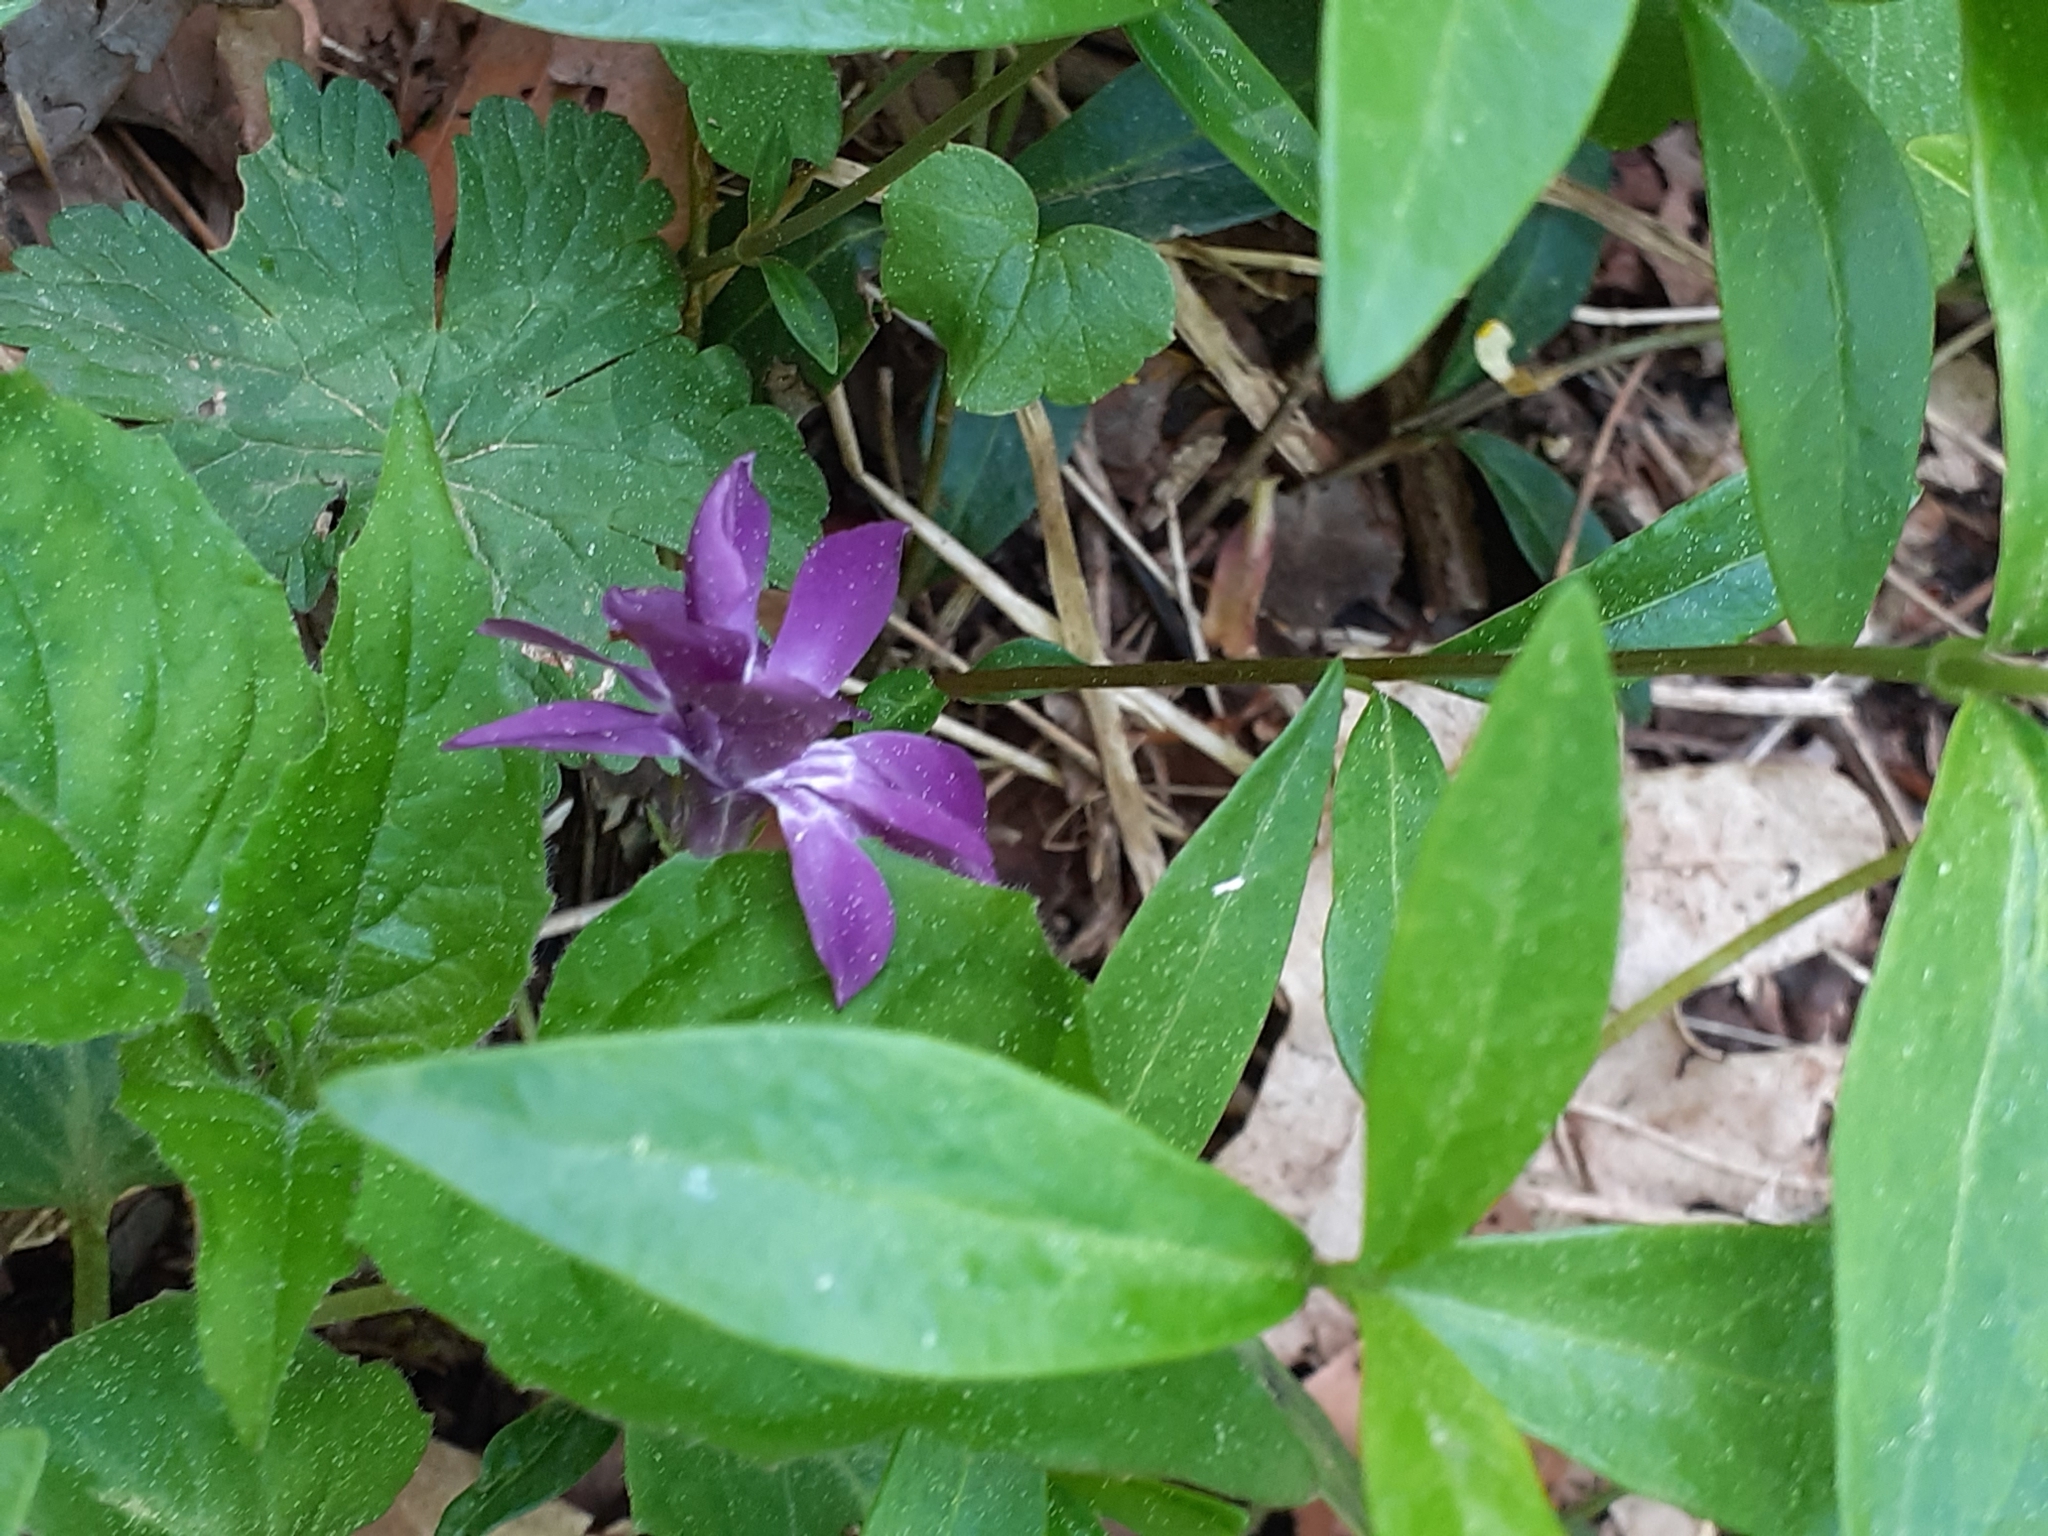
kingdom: Plantae
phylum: Tracheophyta
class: Magnoliopsida
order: Gentianales
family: Apocynaceae
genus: Vinca
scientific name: Vinca minor
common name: Lesser periwinkle
